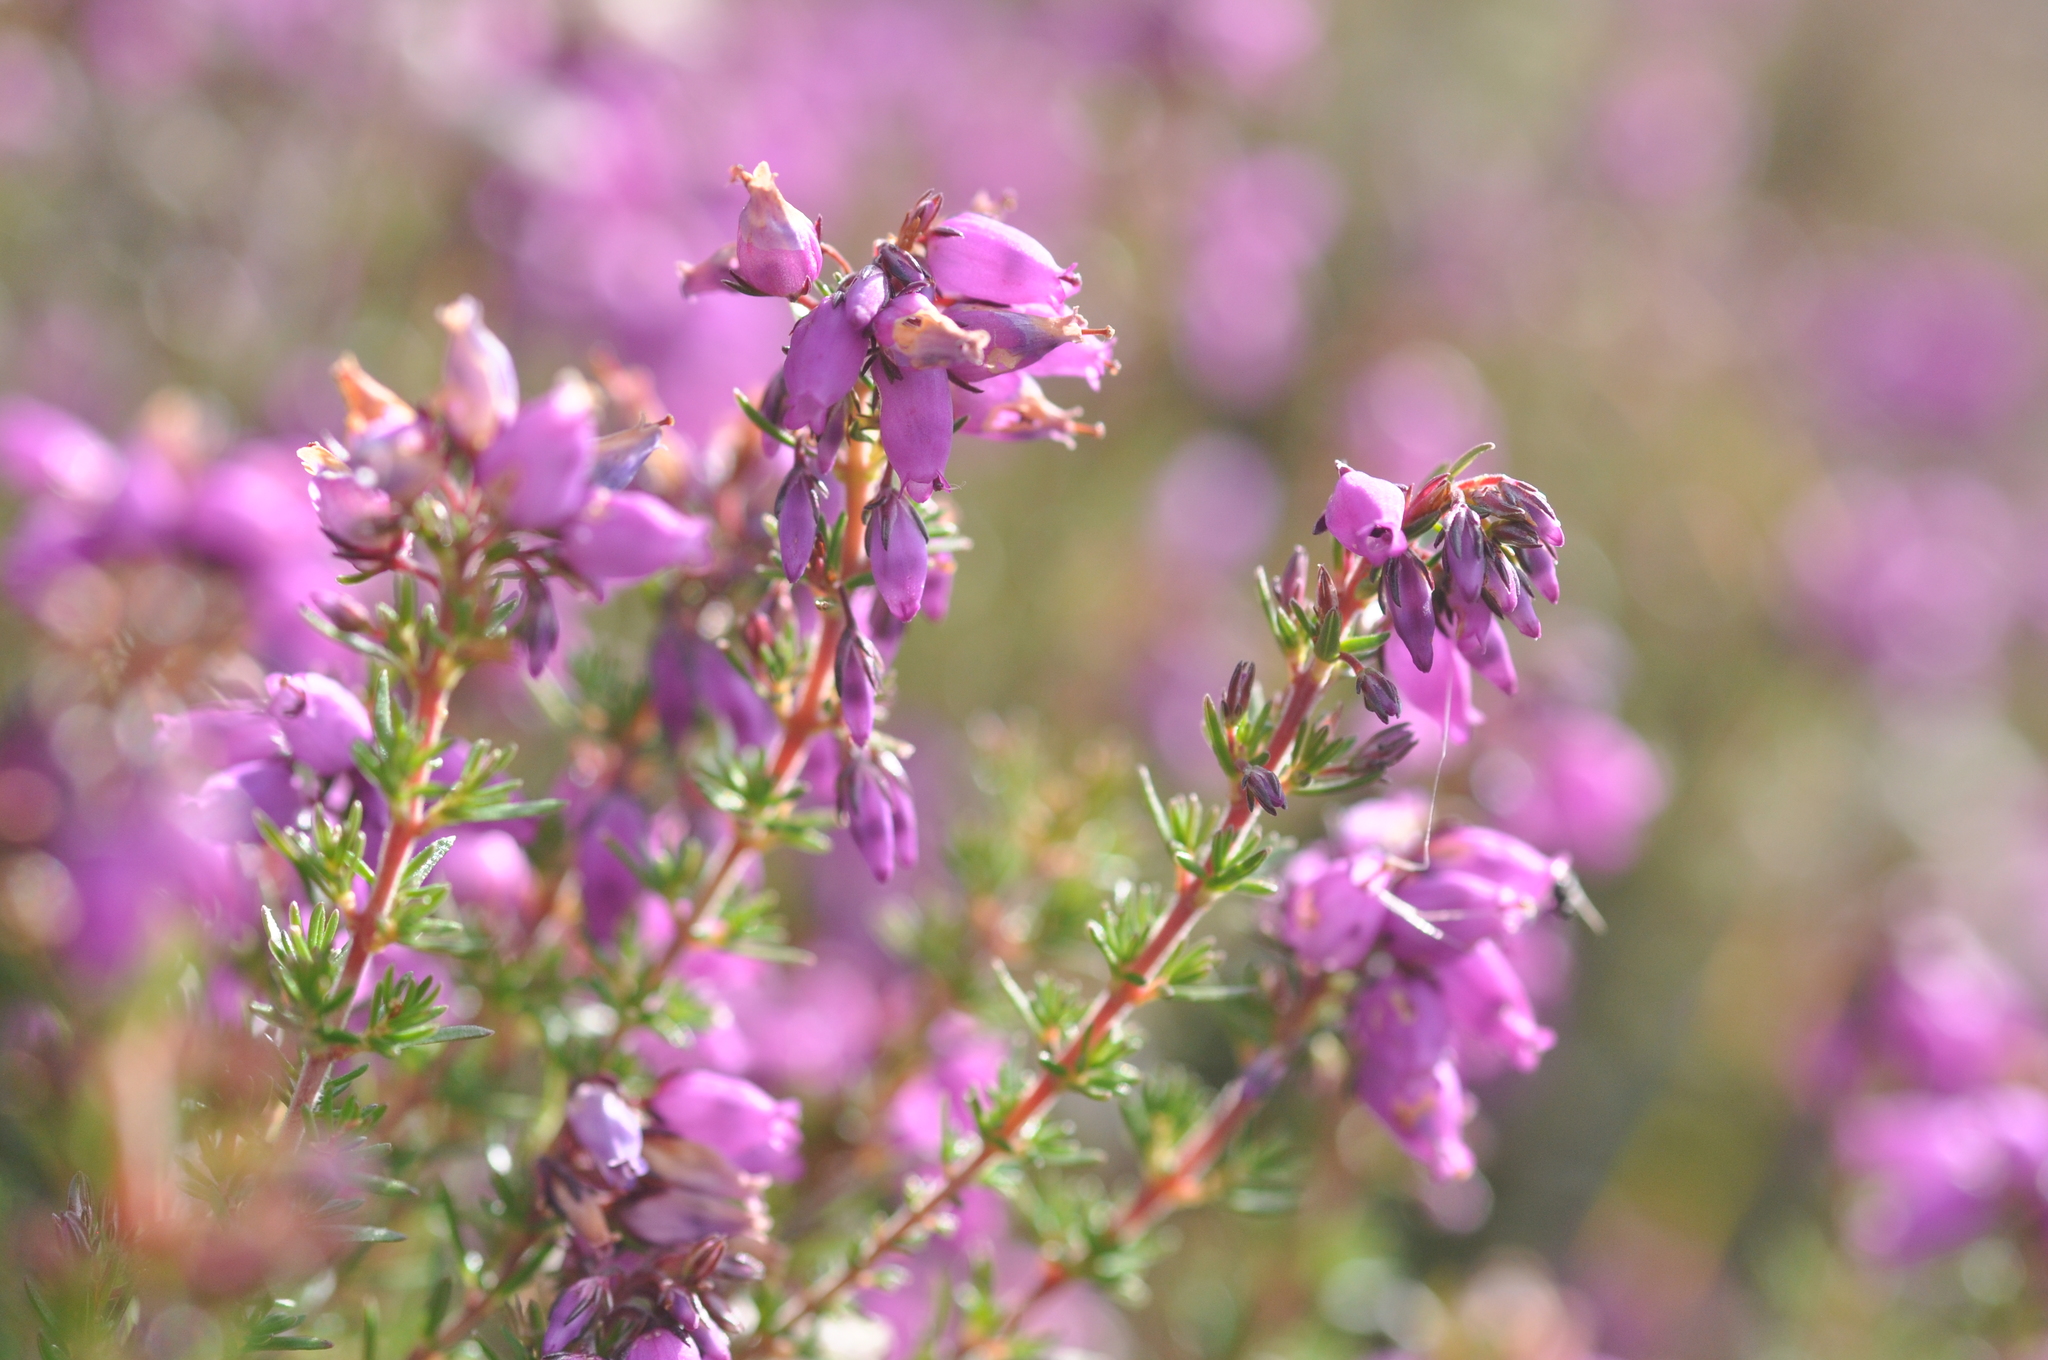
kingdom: Plantae
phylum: Tracheophyta
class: Magnoliopsida
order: Ericales
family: Ericaceae
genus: Erica
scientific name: Erica cinerea
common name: Bell heather
